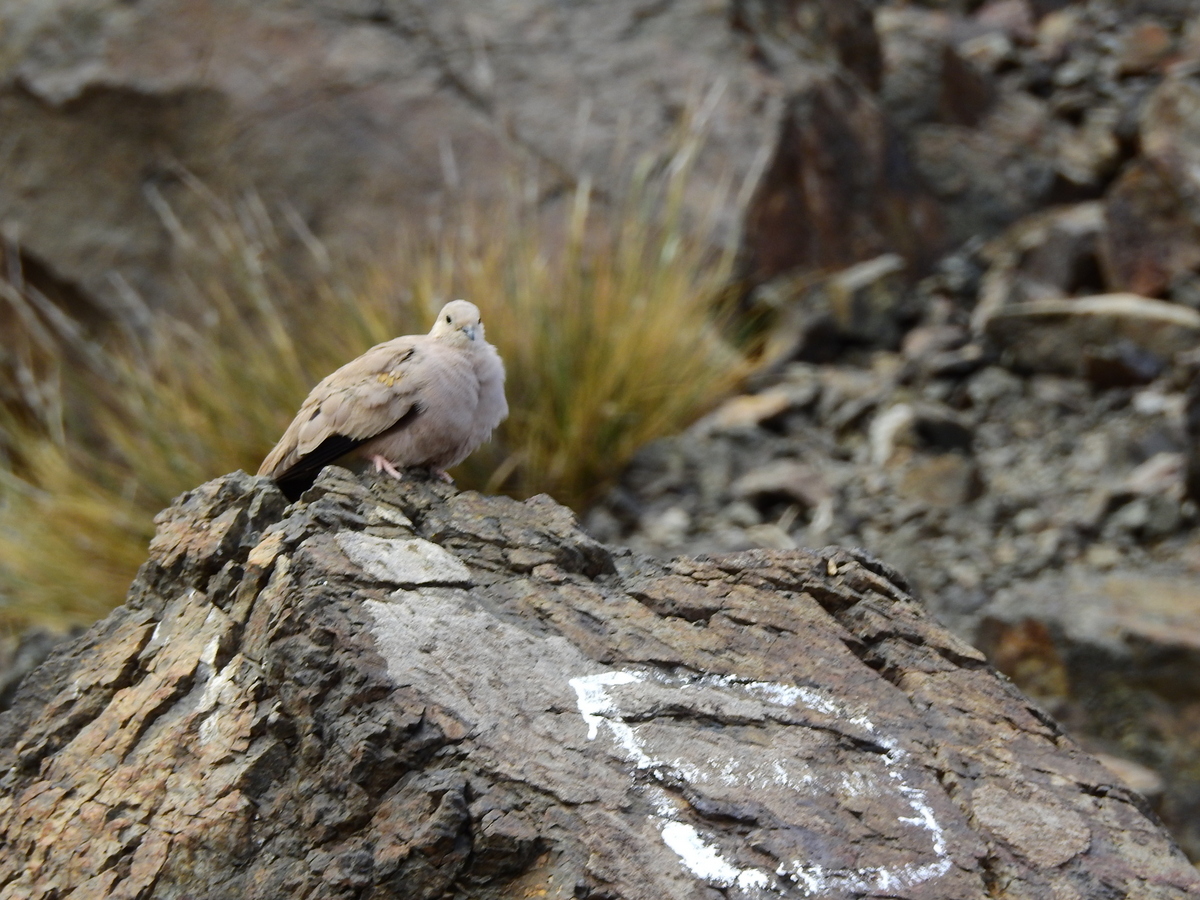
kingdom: Animalia
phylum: Chordata
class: Aves
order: Columbiformes
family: Columbidae
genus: Metriopelia
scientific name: Metriopelia aymara
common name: Golden-spotted ground dove
